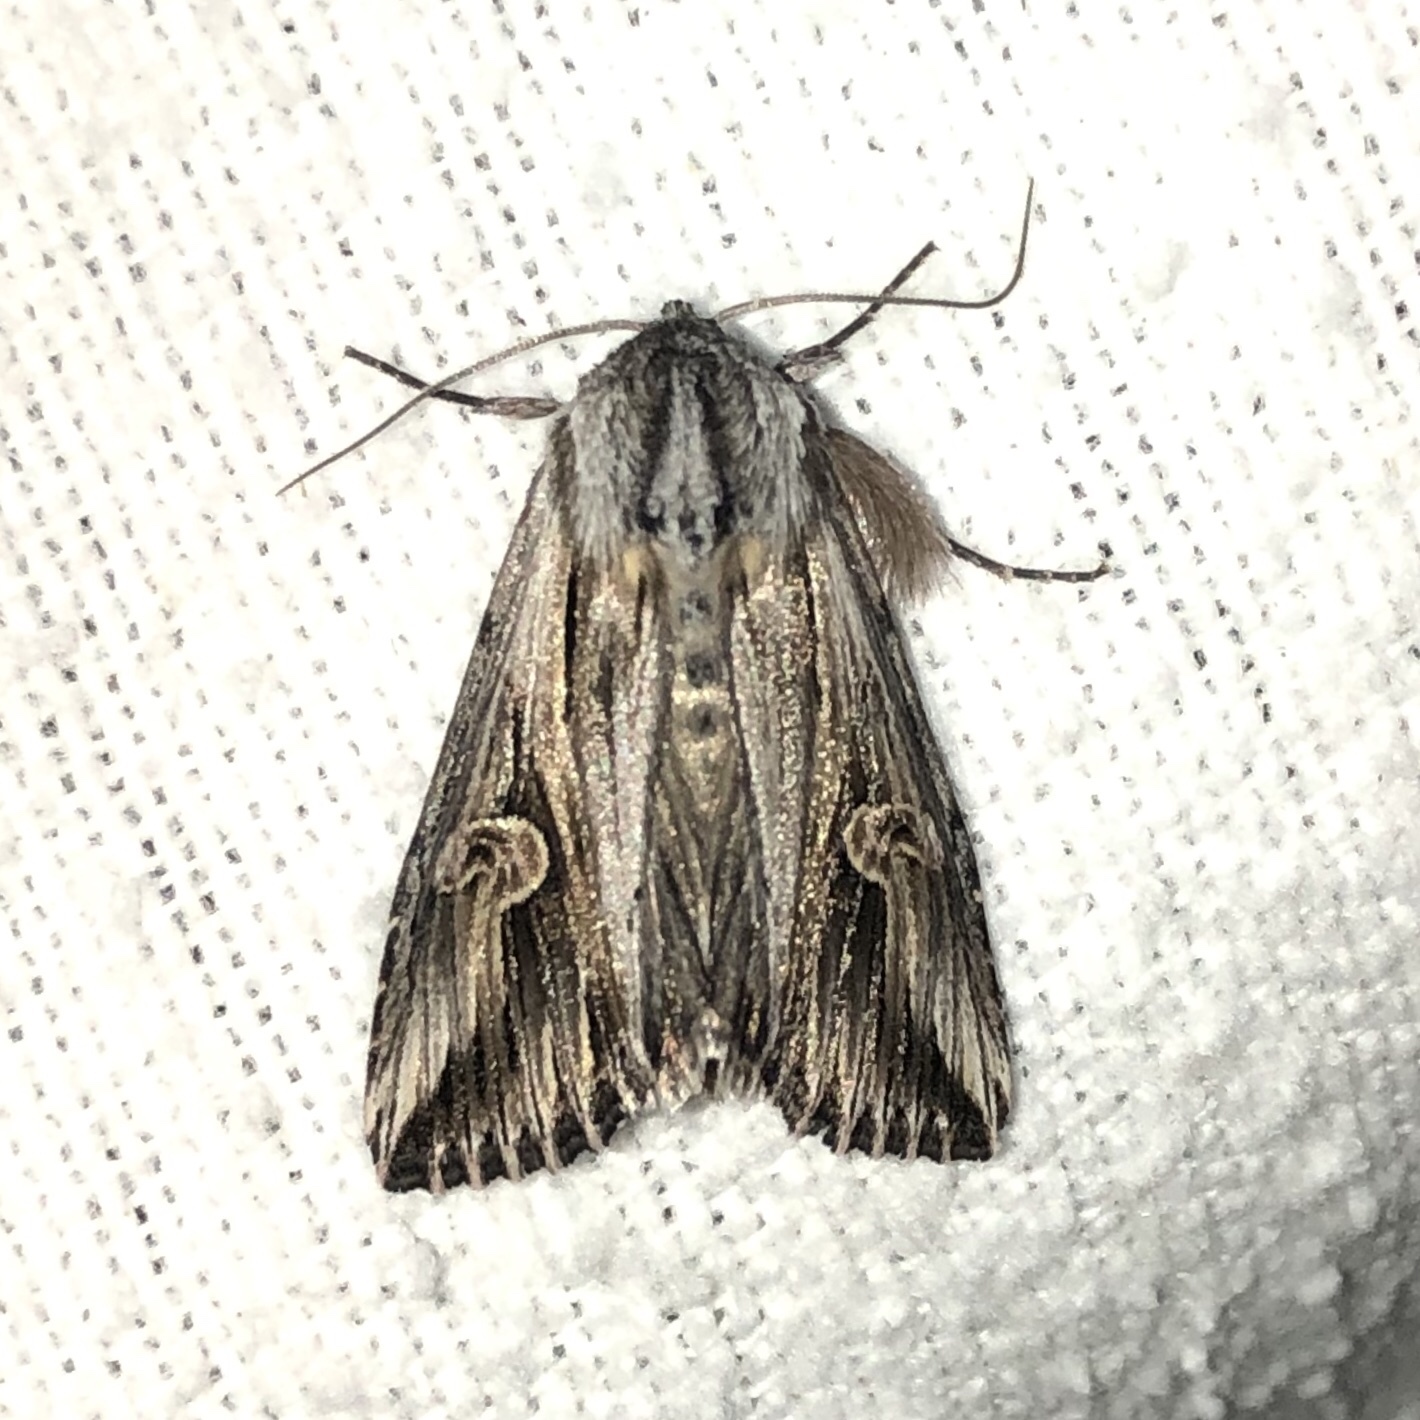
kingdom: Animalia
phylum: Arthropoda
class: Insecta
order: Lepidoptera
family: Noctuidae
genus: Nedra
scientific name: Nedra ramosula
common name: Gray half-spot
